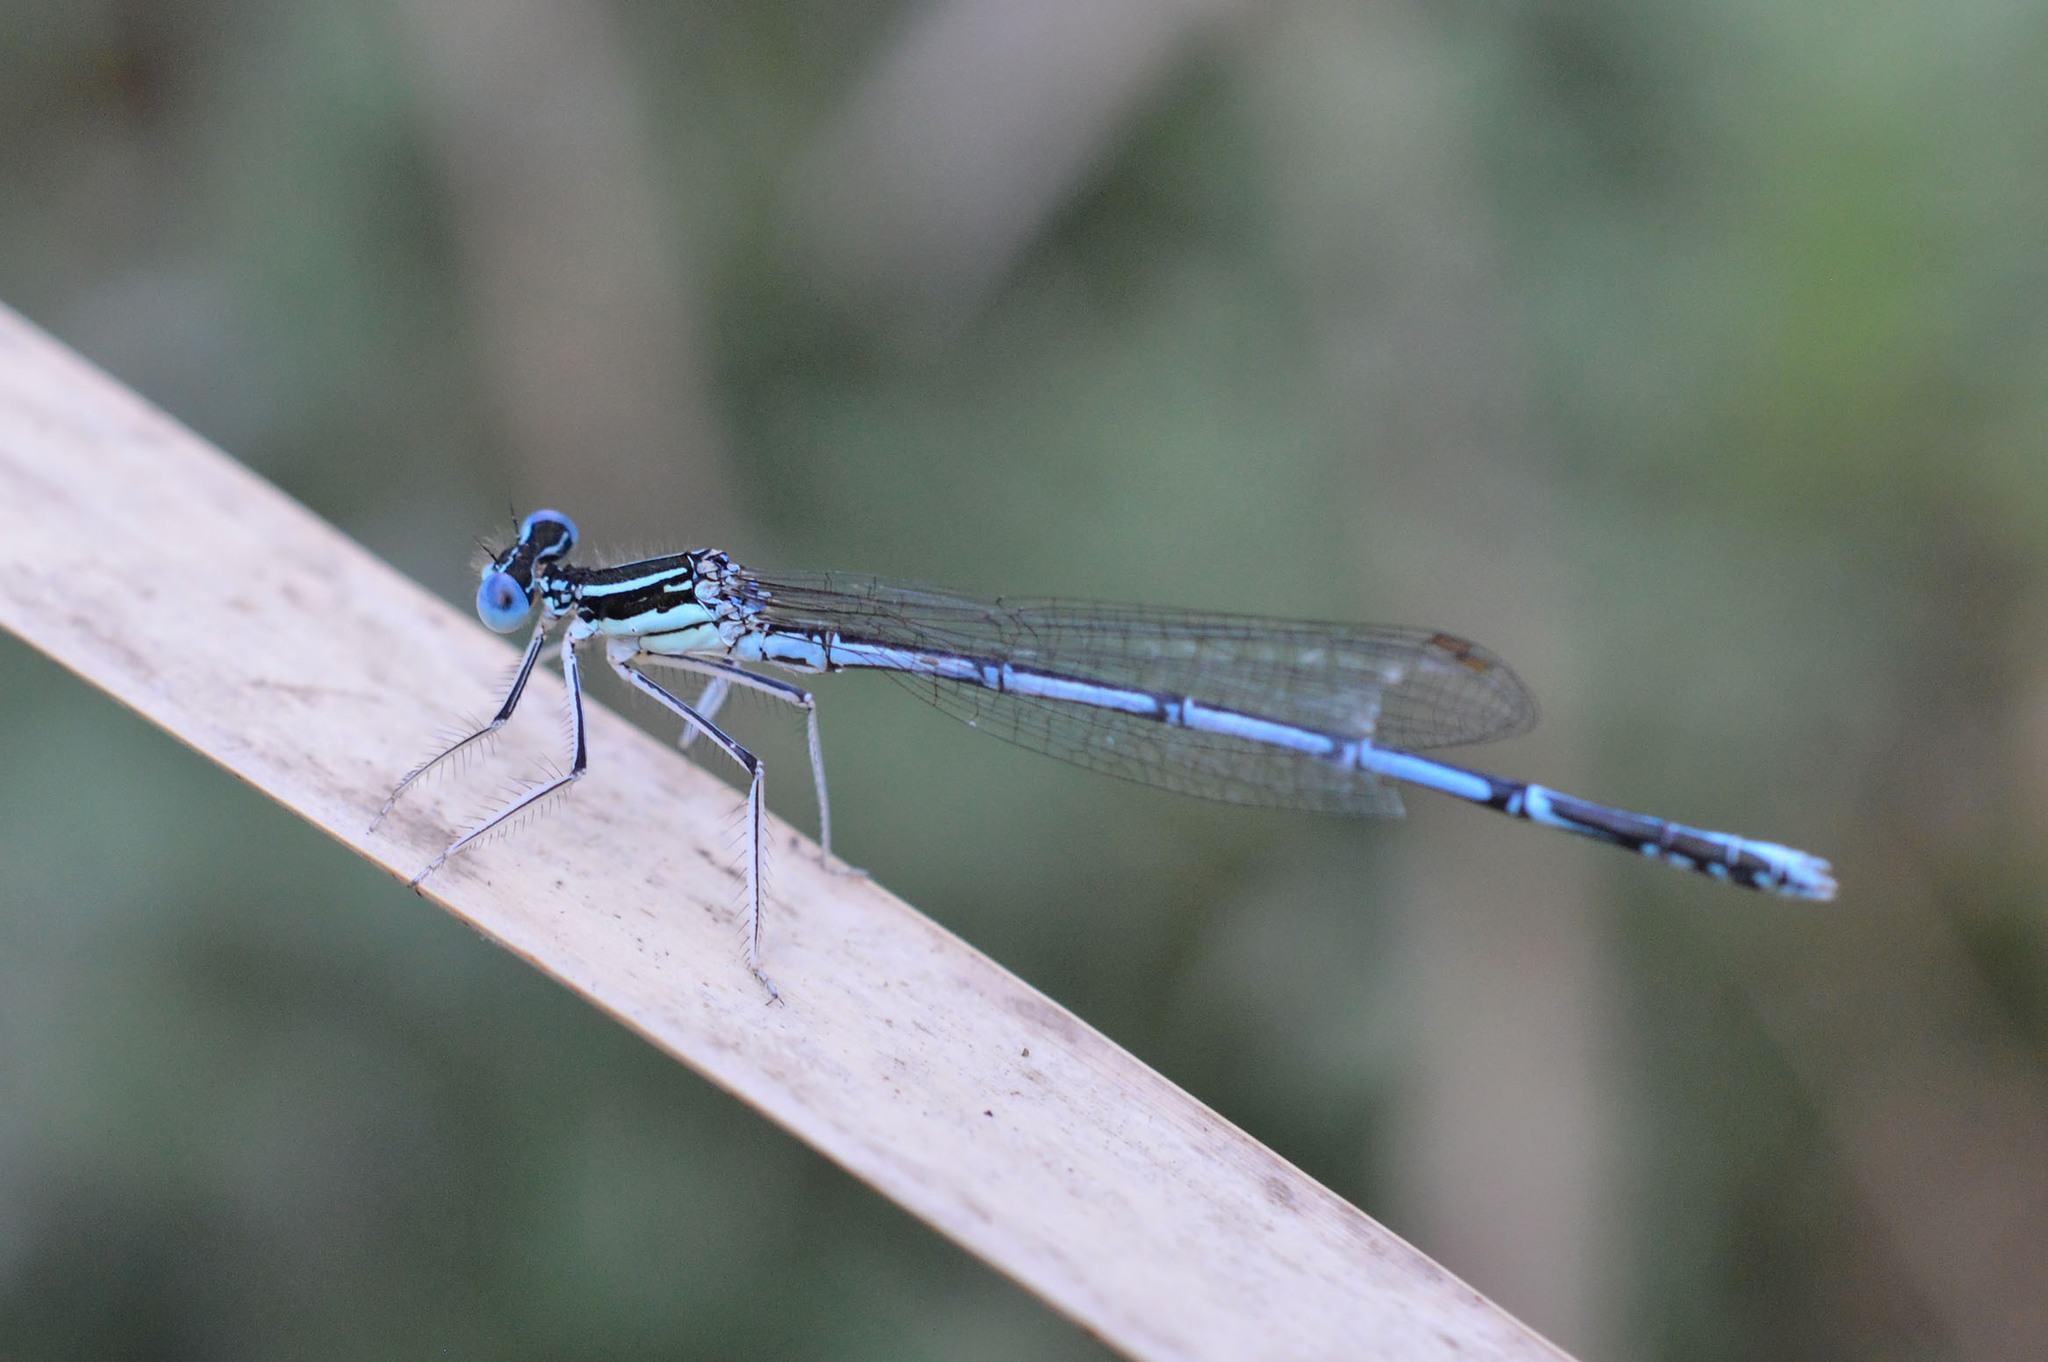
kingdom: Animalia
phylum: Arthropoda
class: Insecta
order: Odonata
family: Platycnemididae
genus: Platycnemis
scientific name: Platycnemis pennipes
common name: White-legged damselfly
